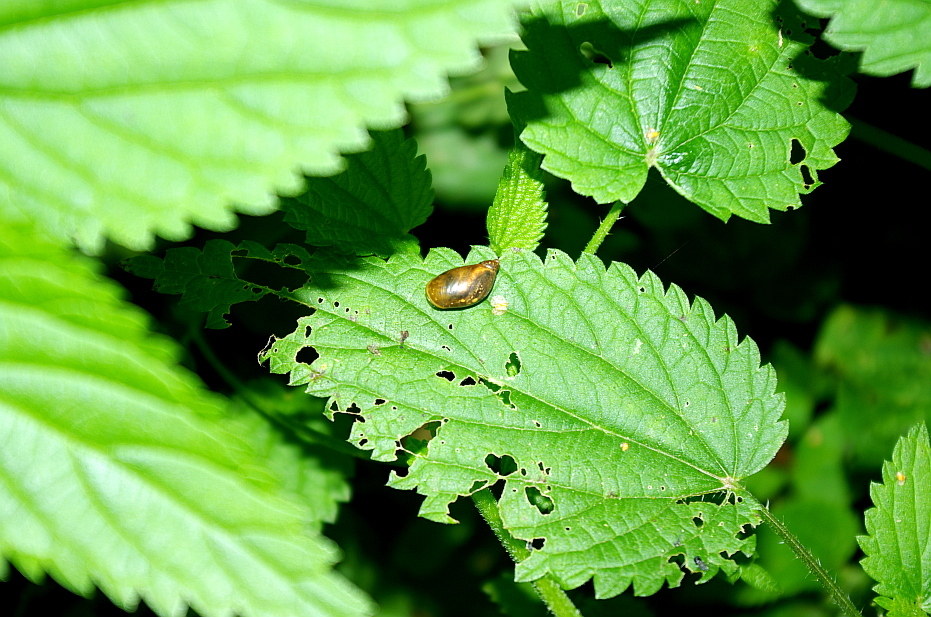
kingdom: Plantae
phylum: Tracheophyta
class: Magnoliopsida
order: Rosales
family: Urticaceae
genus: Urtica
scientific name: Urtica dioica
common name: Common nettle
